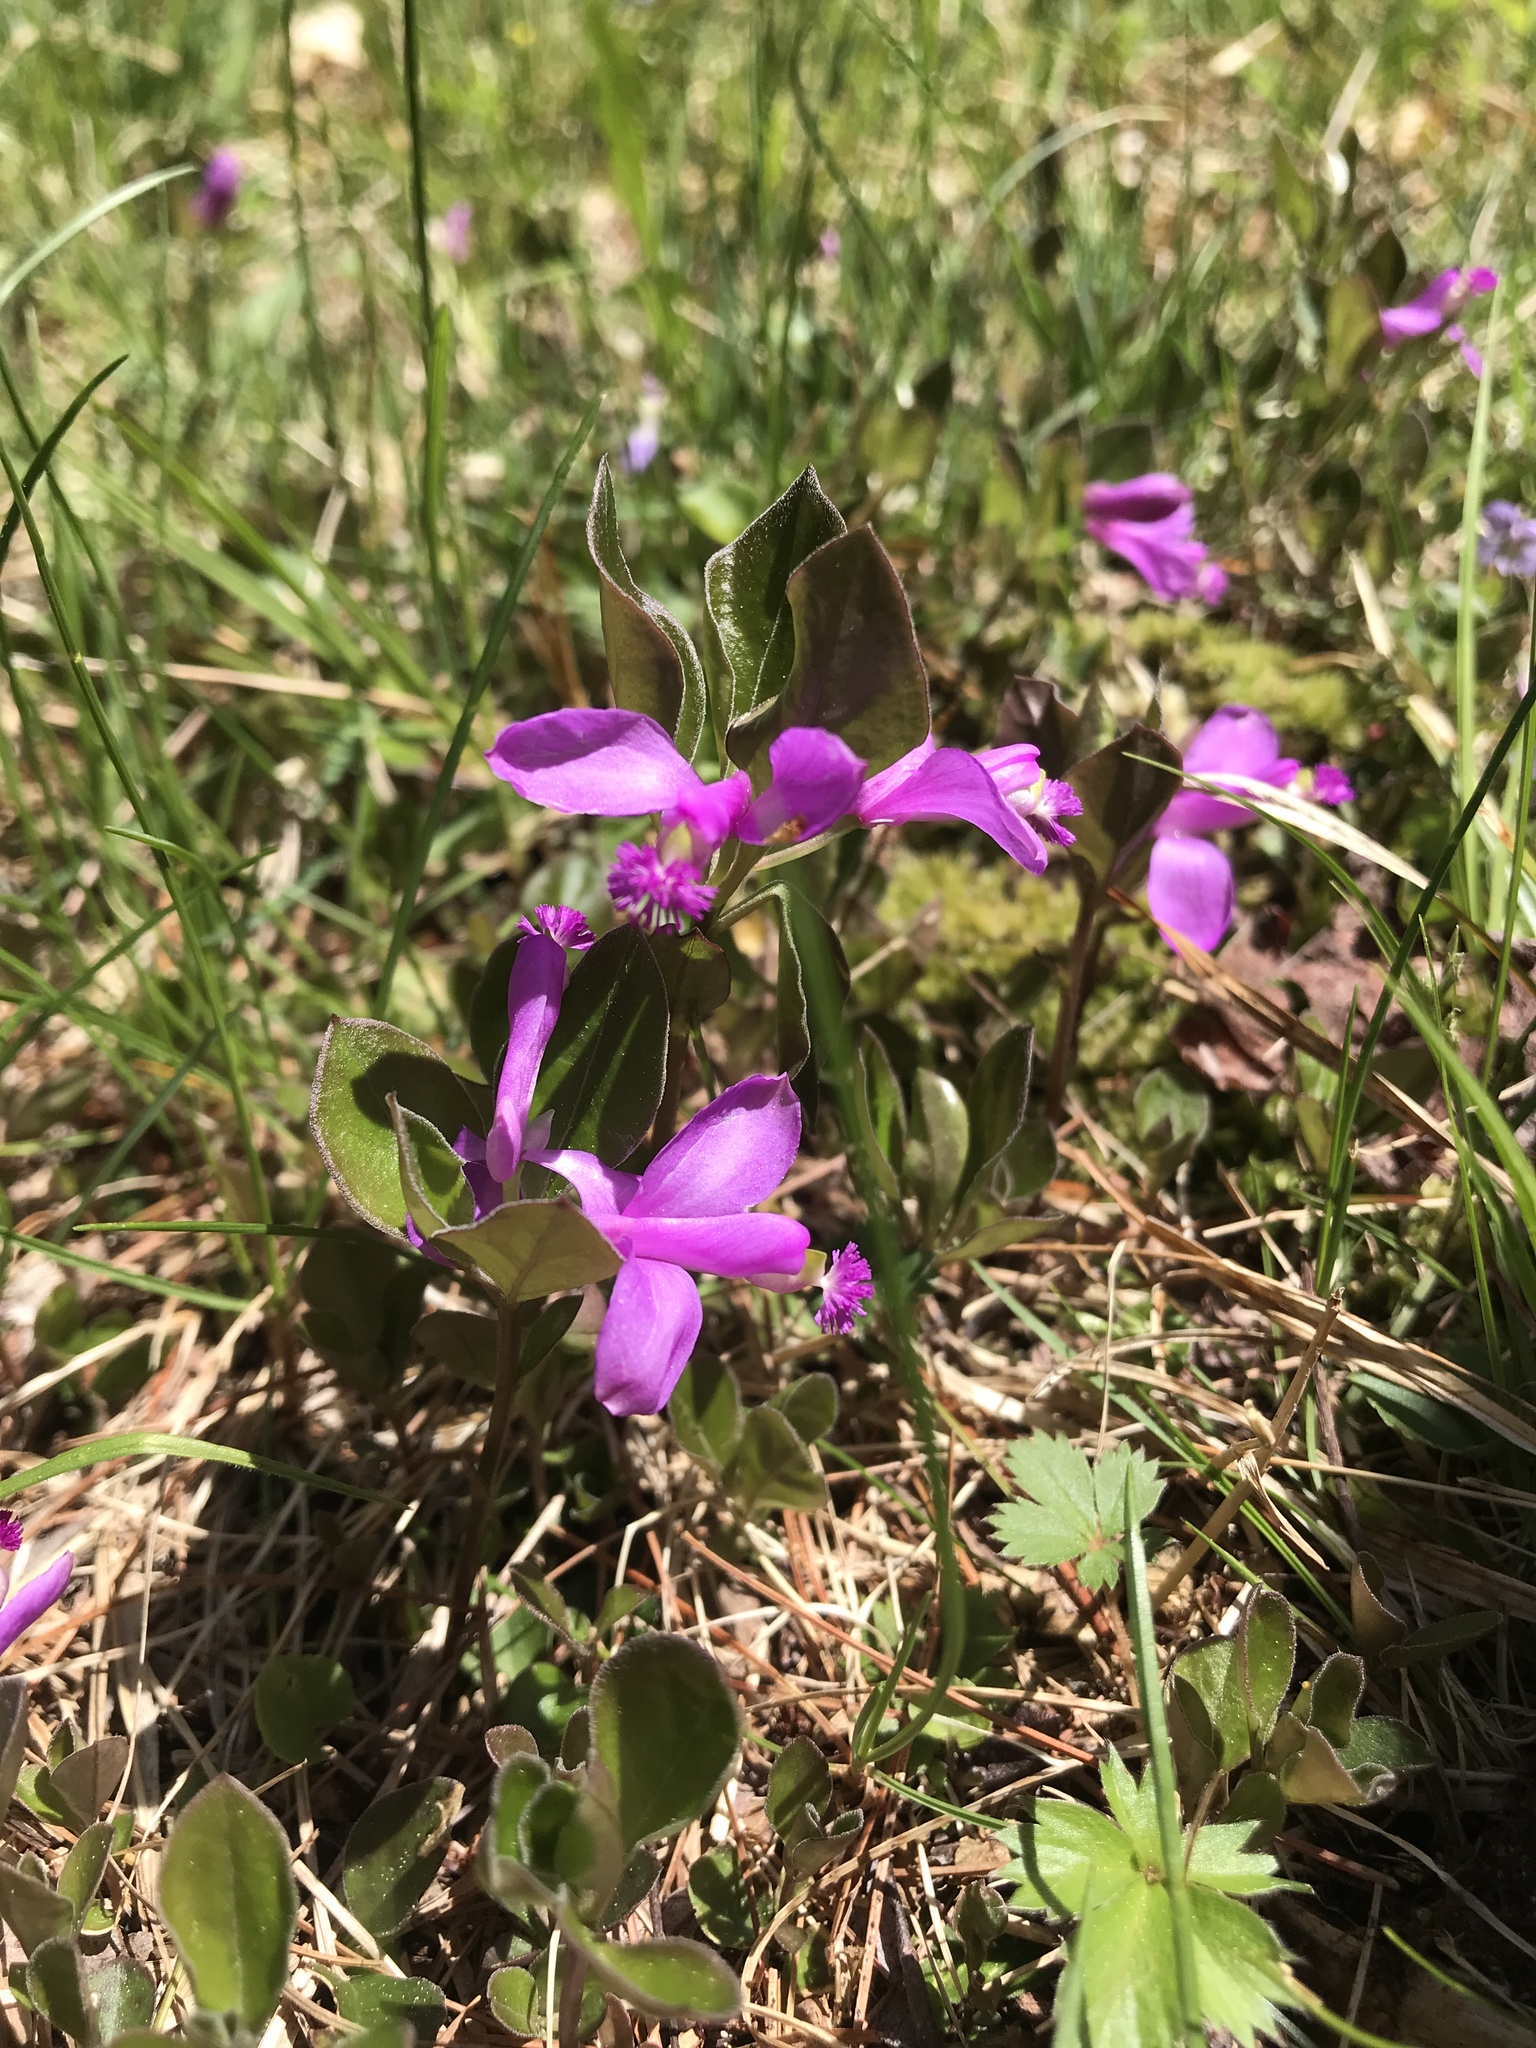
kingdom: Plantae
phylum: Tracheophyta
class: Magnoliopsida
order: Fabales
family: Polygalaceae
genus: Polygaloides
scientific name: Polygaloides paucifolia
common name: Bird-on-the-wing
